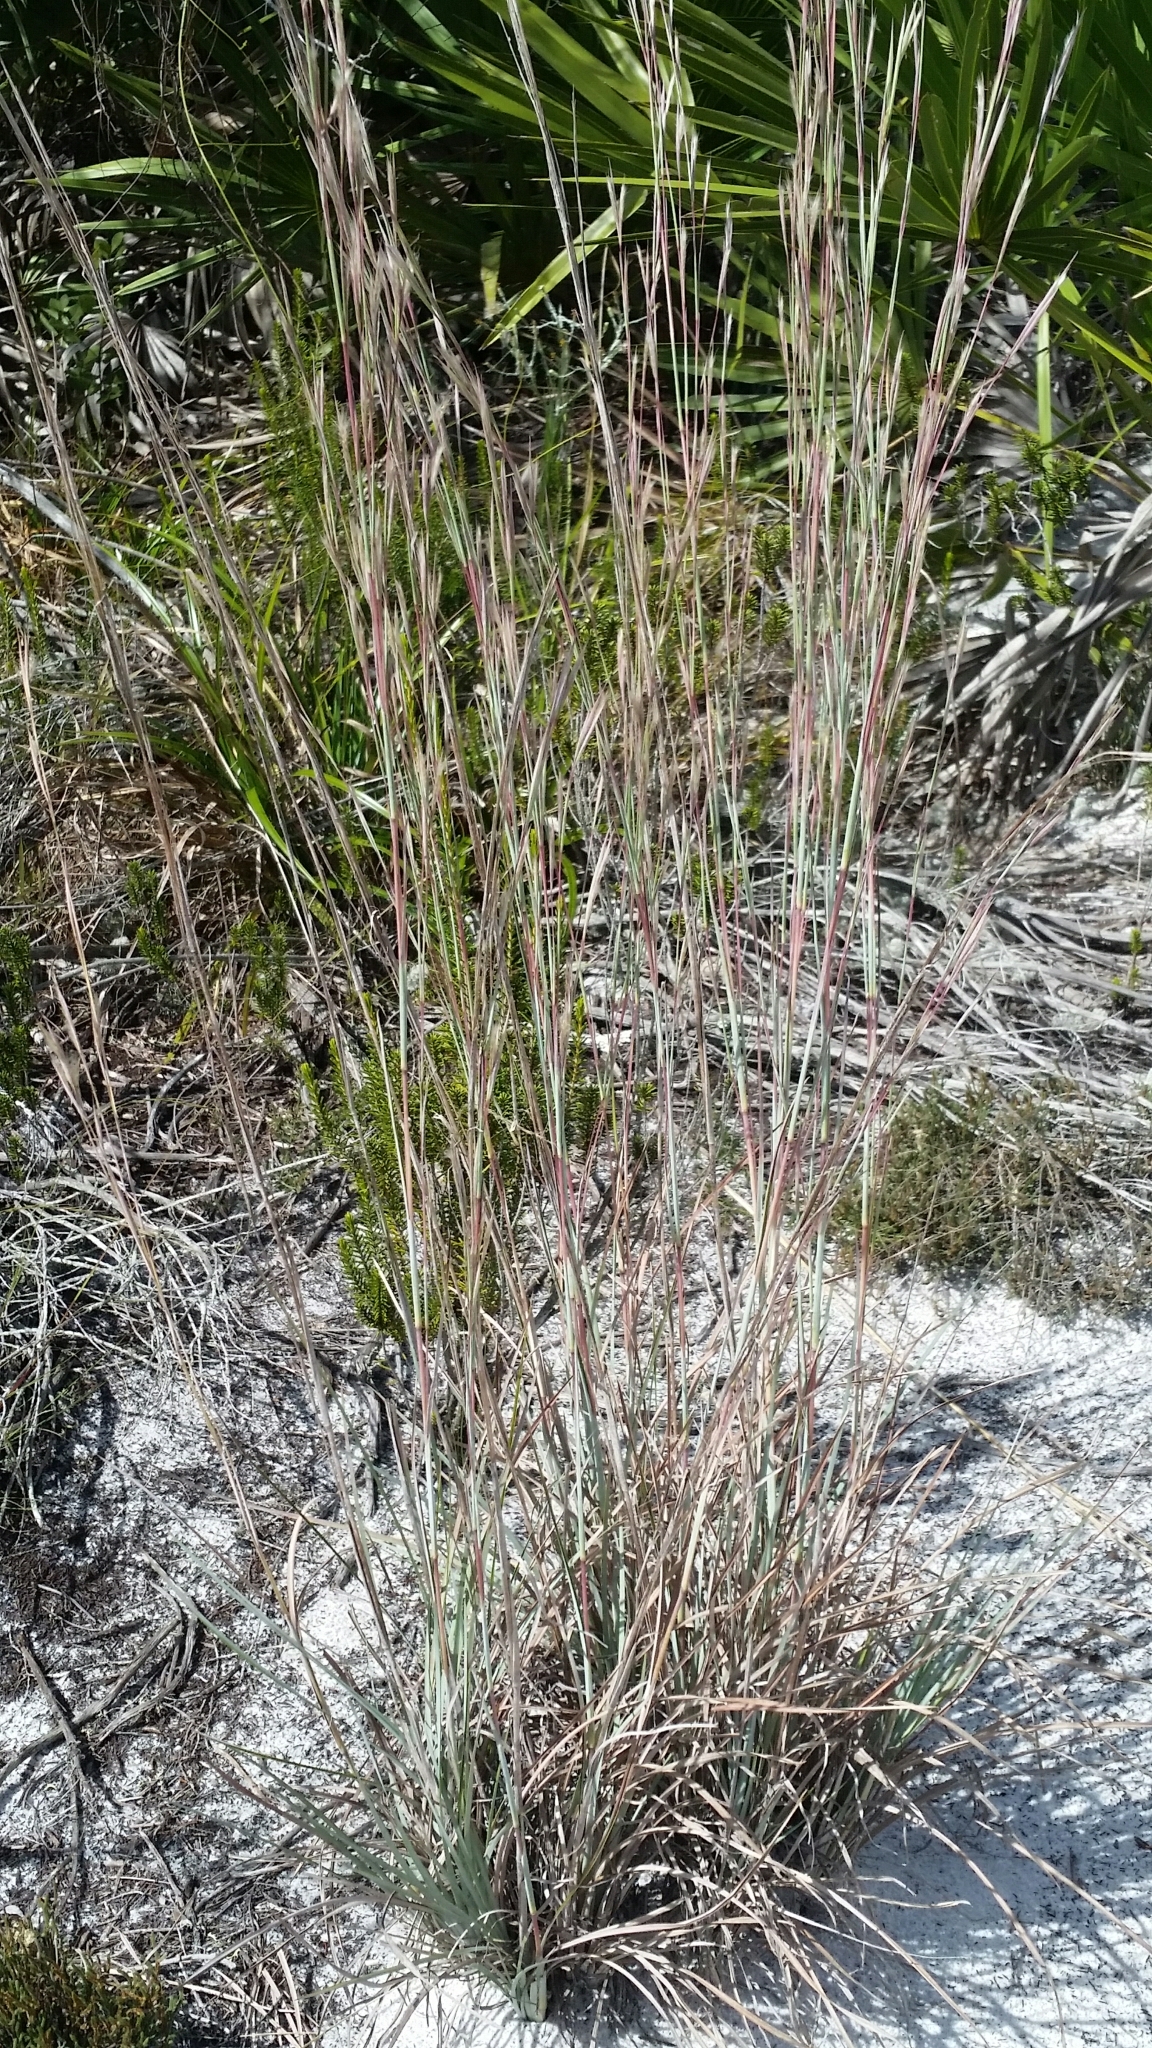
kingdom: Plantae
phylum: Tracheophyta
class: Liliopsida
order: Poales
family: Poaceae
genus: Andropogon
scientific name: Andropogon capillipes
